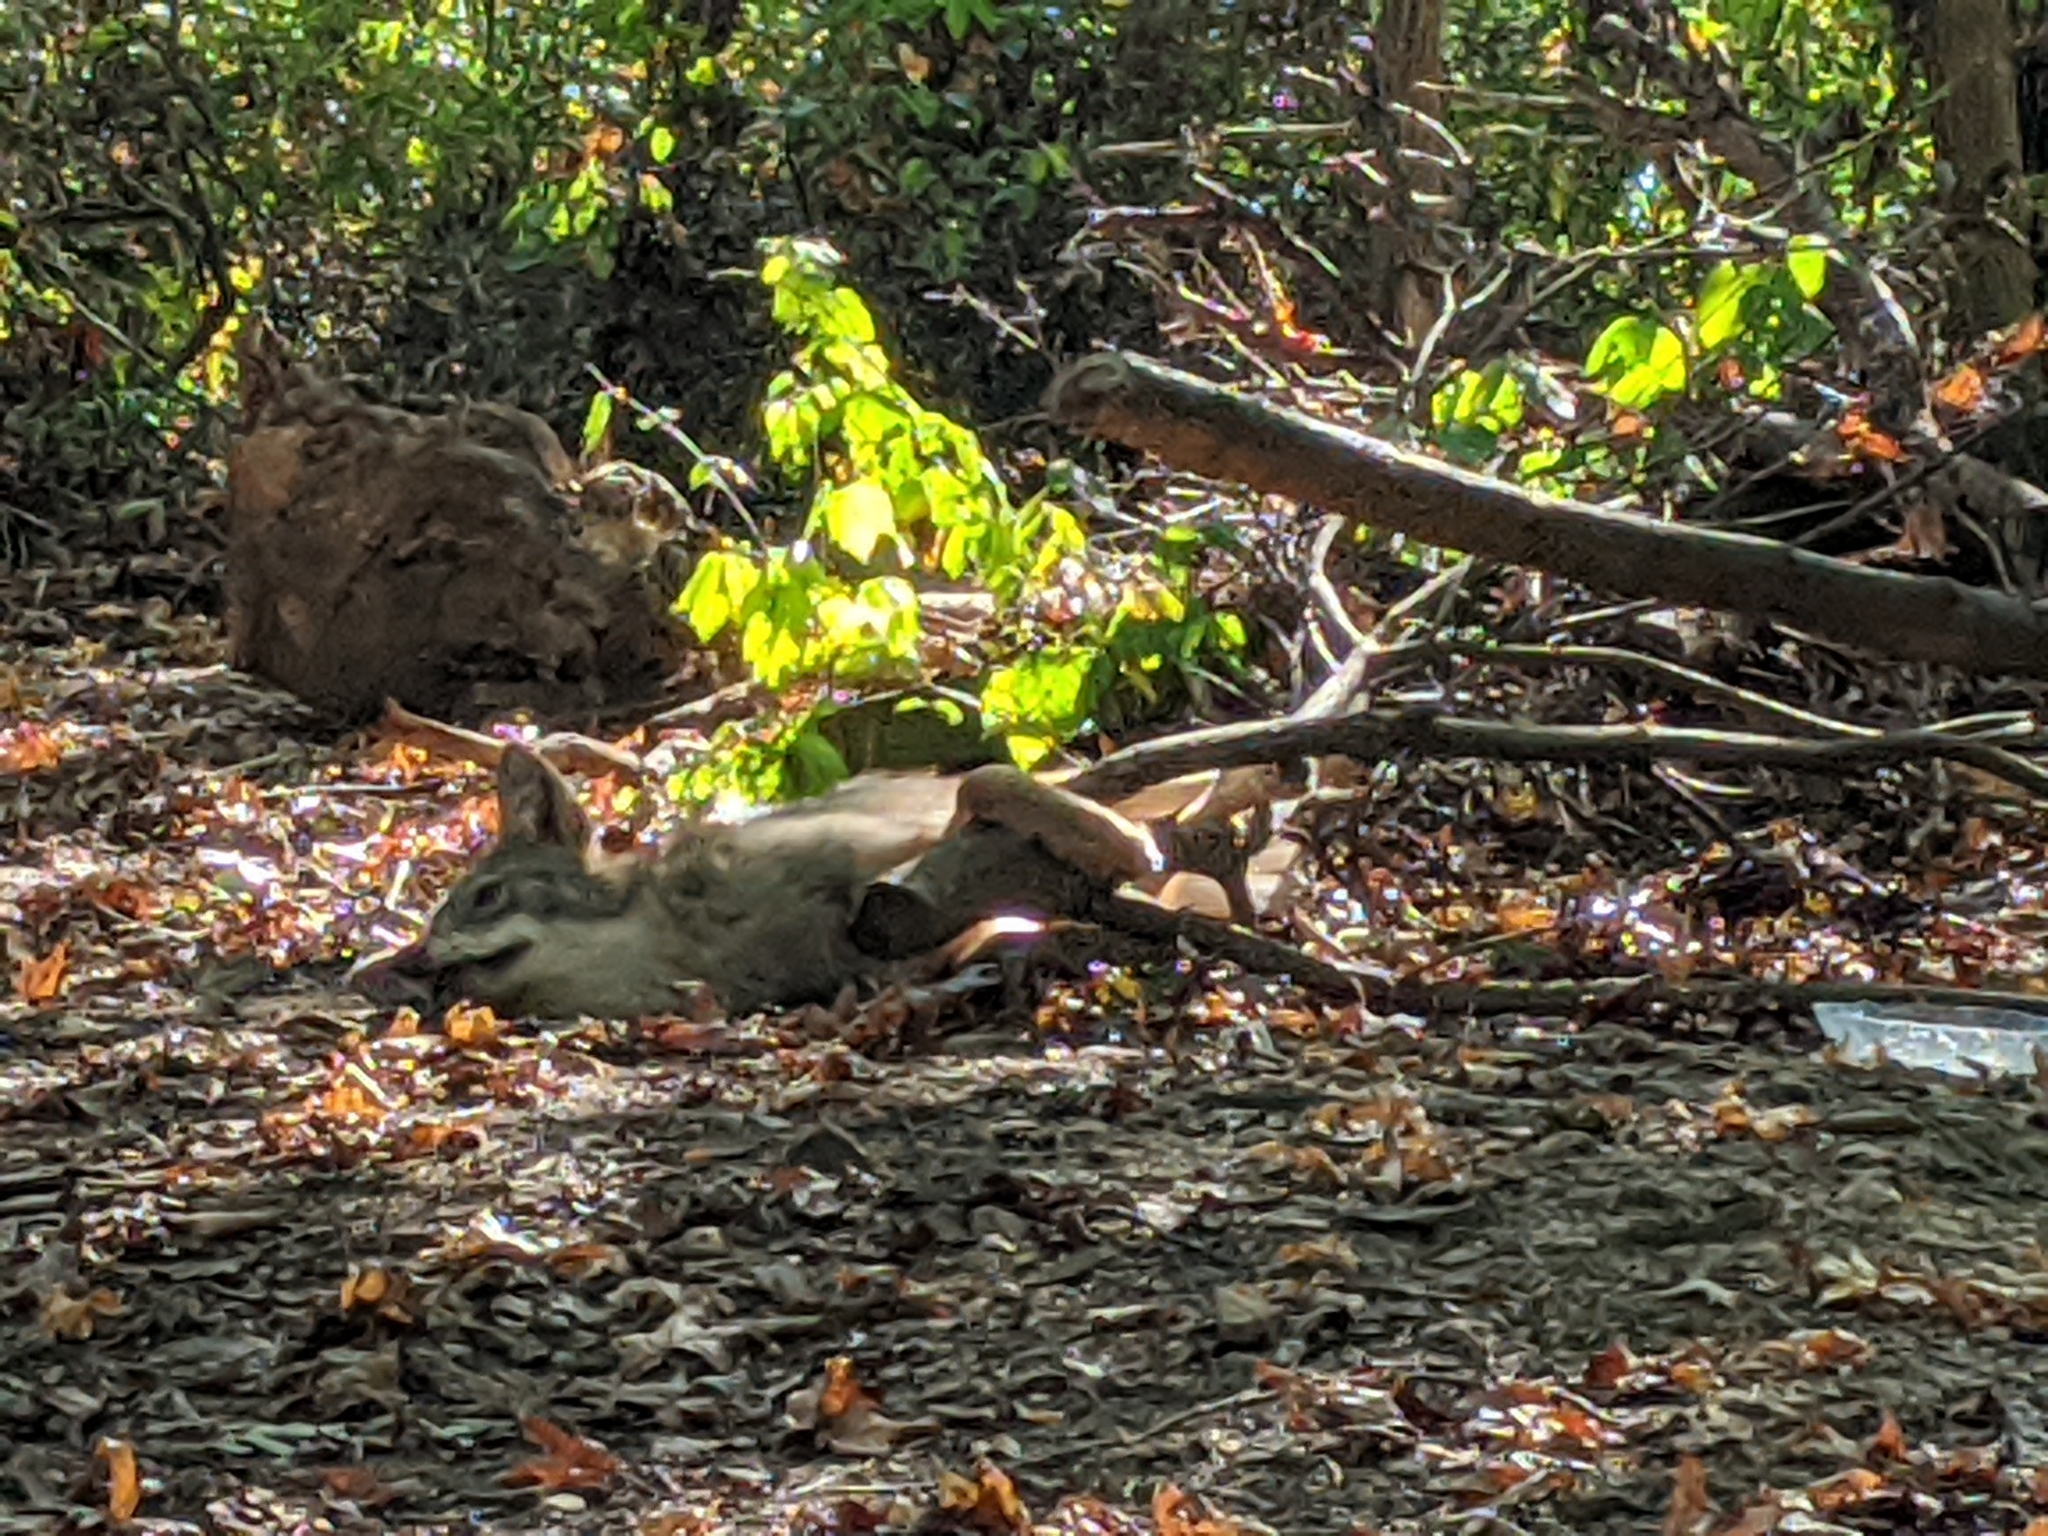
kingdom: Animalia
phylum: Chordata
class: Mammalia
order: Carnivora
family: Canidae
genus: Canis
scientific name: Canis latrans
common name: Coyote
